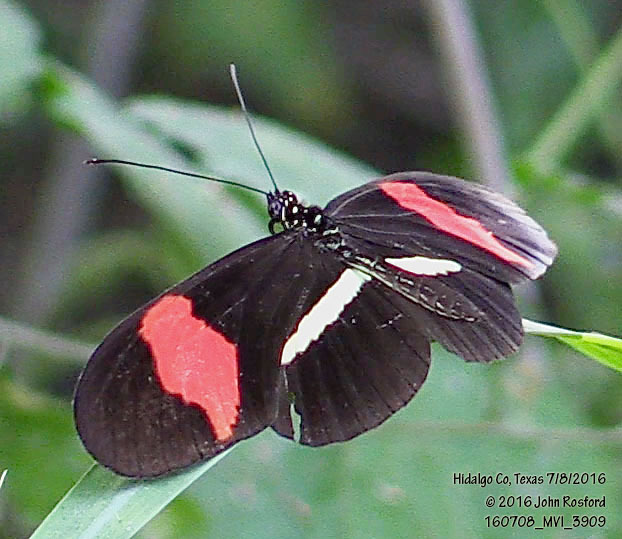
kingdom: Animalia
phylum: Arthropoda
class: Insecta
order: Lepidoptera
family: Nymphalidae
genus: Heliconius
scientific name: Heliconius erato
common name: Common patch longwing
